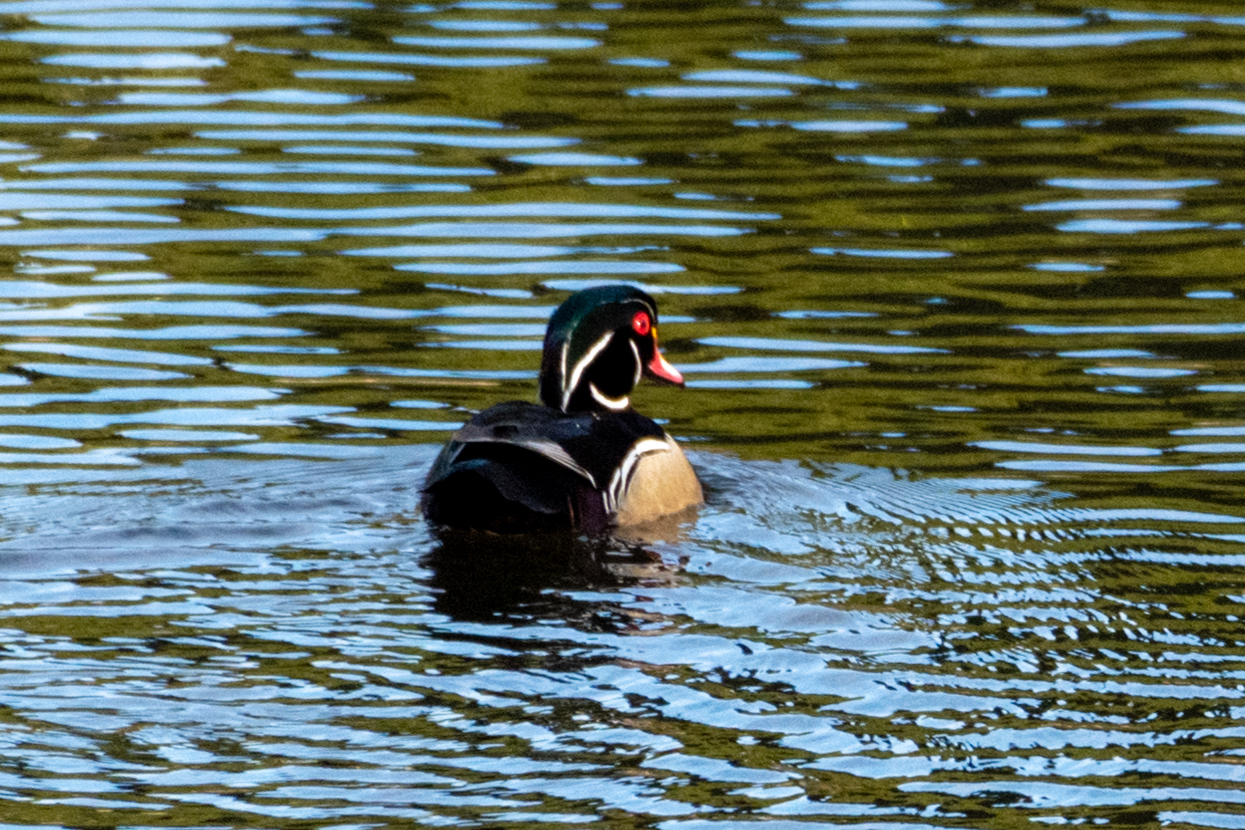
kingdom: Animalia
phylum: Chordata
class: Aves
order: Anseriformes
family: Anatidae
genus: Aix
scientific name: Aix sponsa
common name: Wood duck
